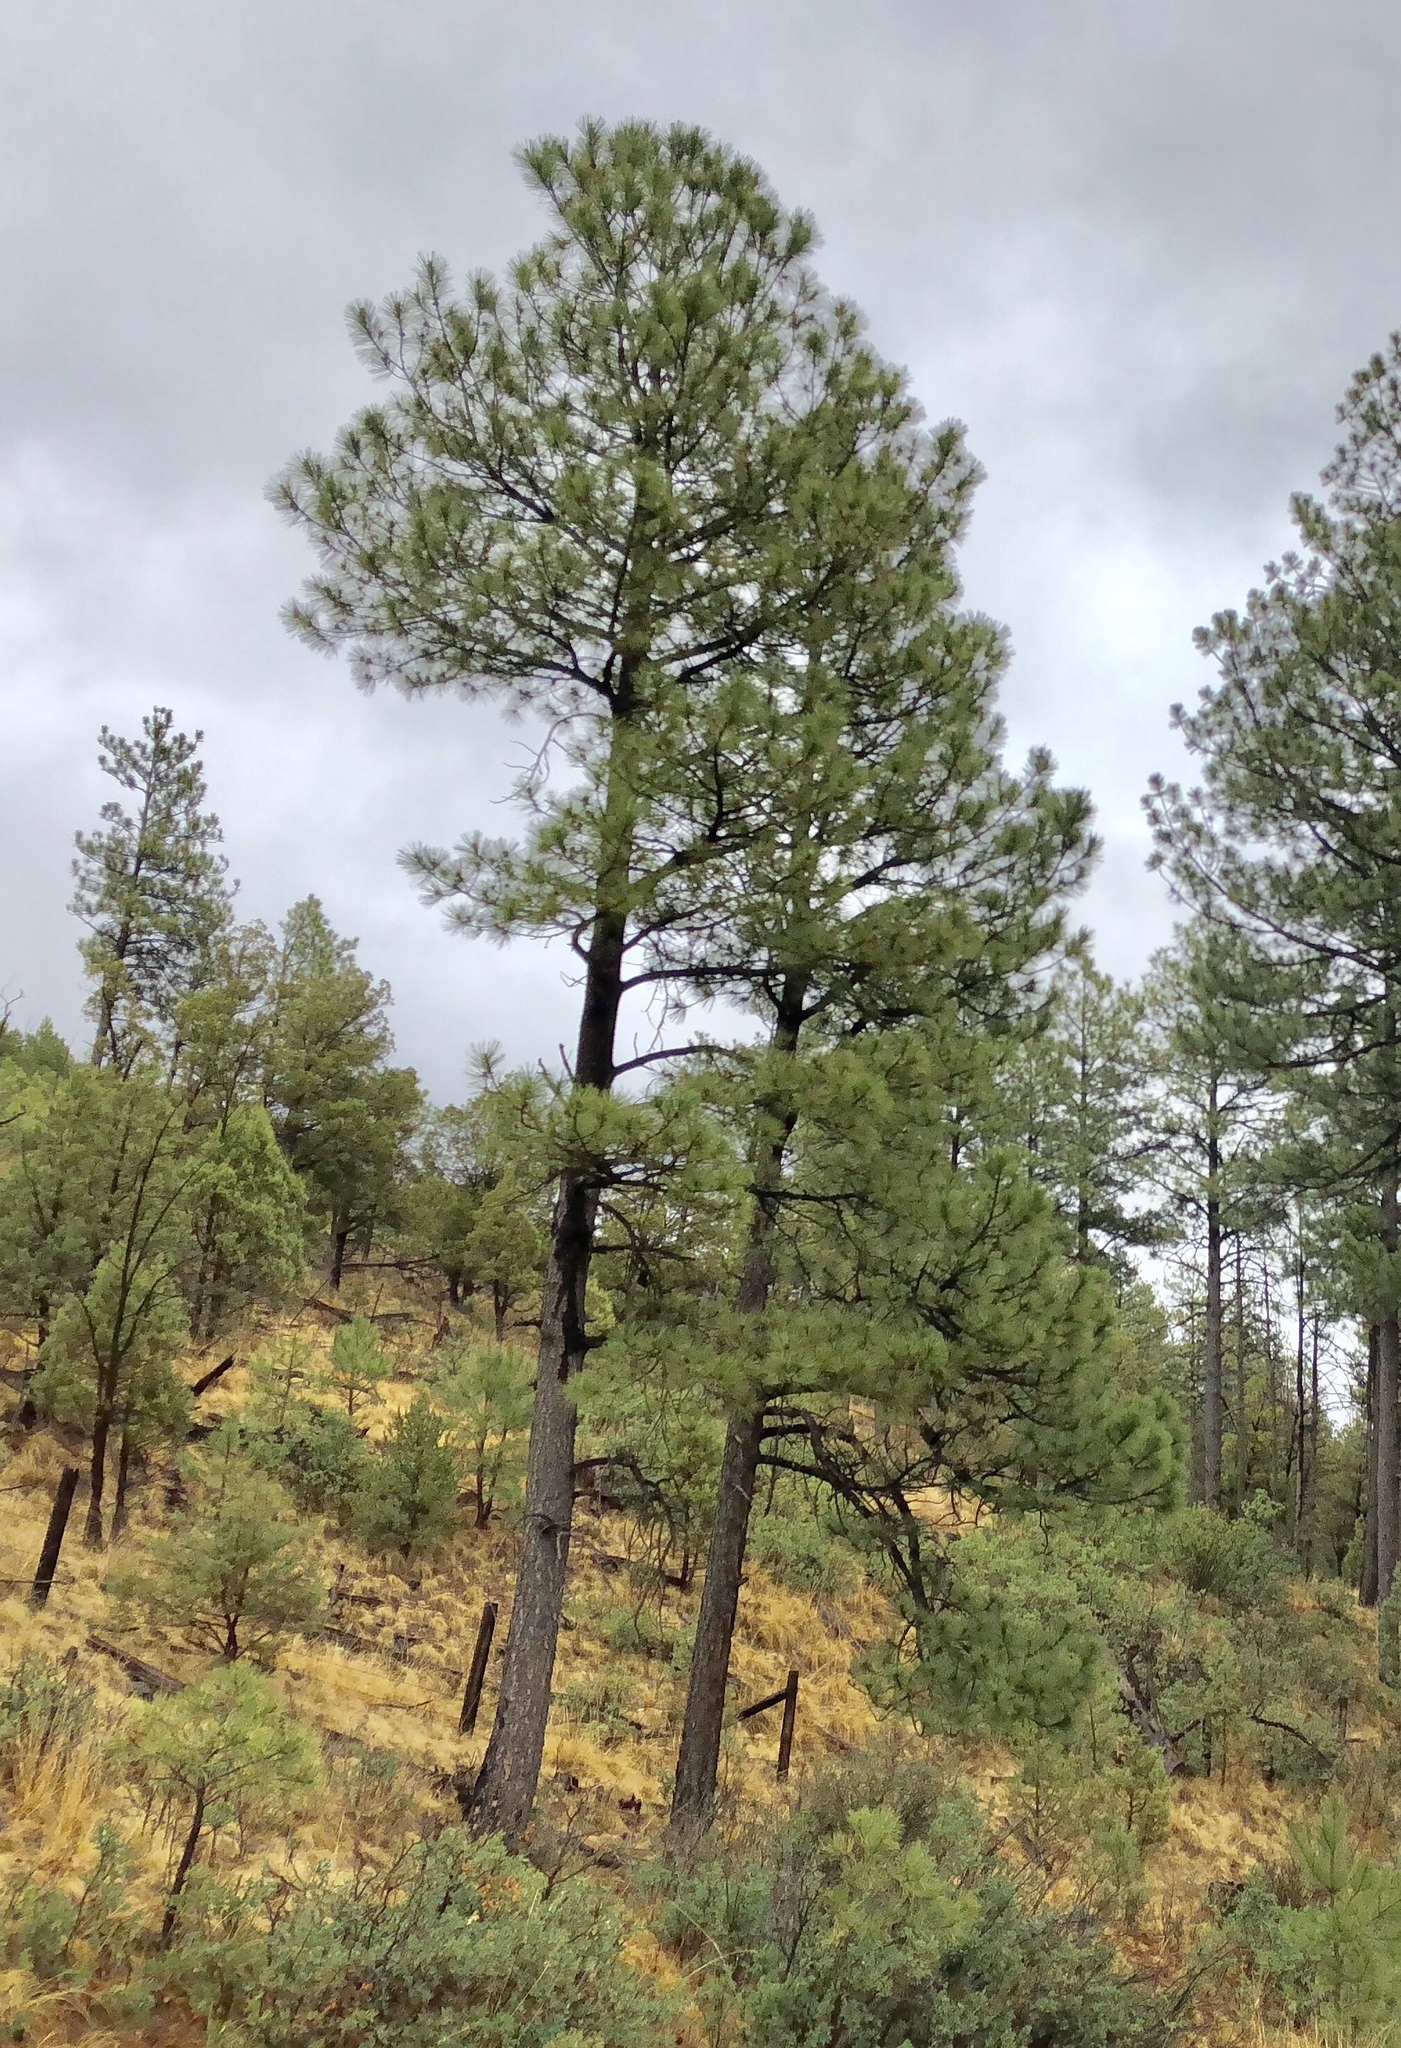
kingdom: Plantae
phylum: Tracheophyta
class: Pinopsida
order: Pinales
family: Pinaceae
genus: Pinus
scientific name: Pinus ponderosa
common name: Western yellow-pine
